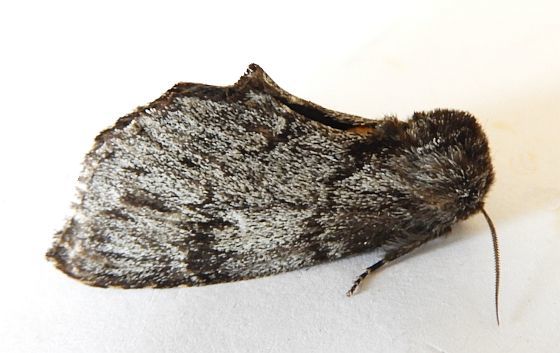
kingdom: Animalia
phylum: Arthropoda
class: Insecta
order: Lepidoptera
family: Notodontidae
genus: Cargida
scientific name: Cargida pyrrha
